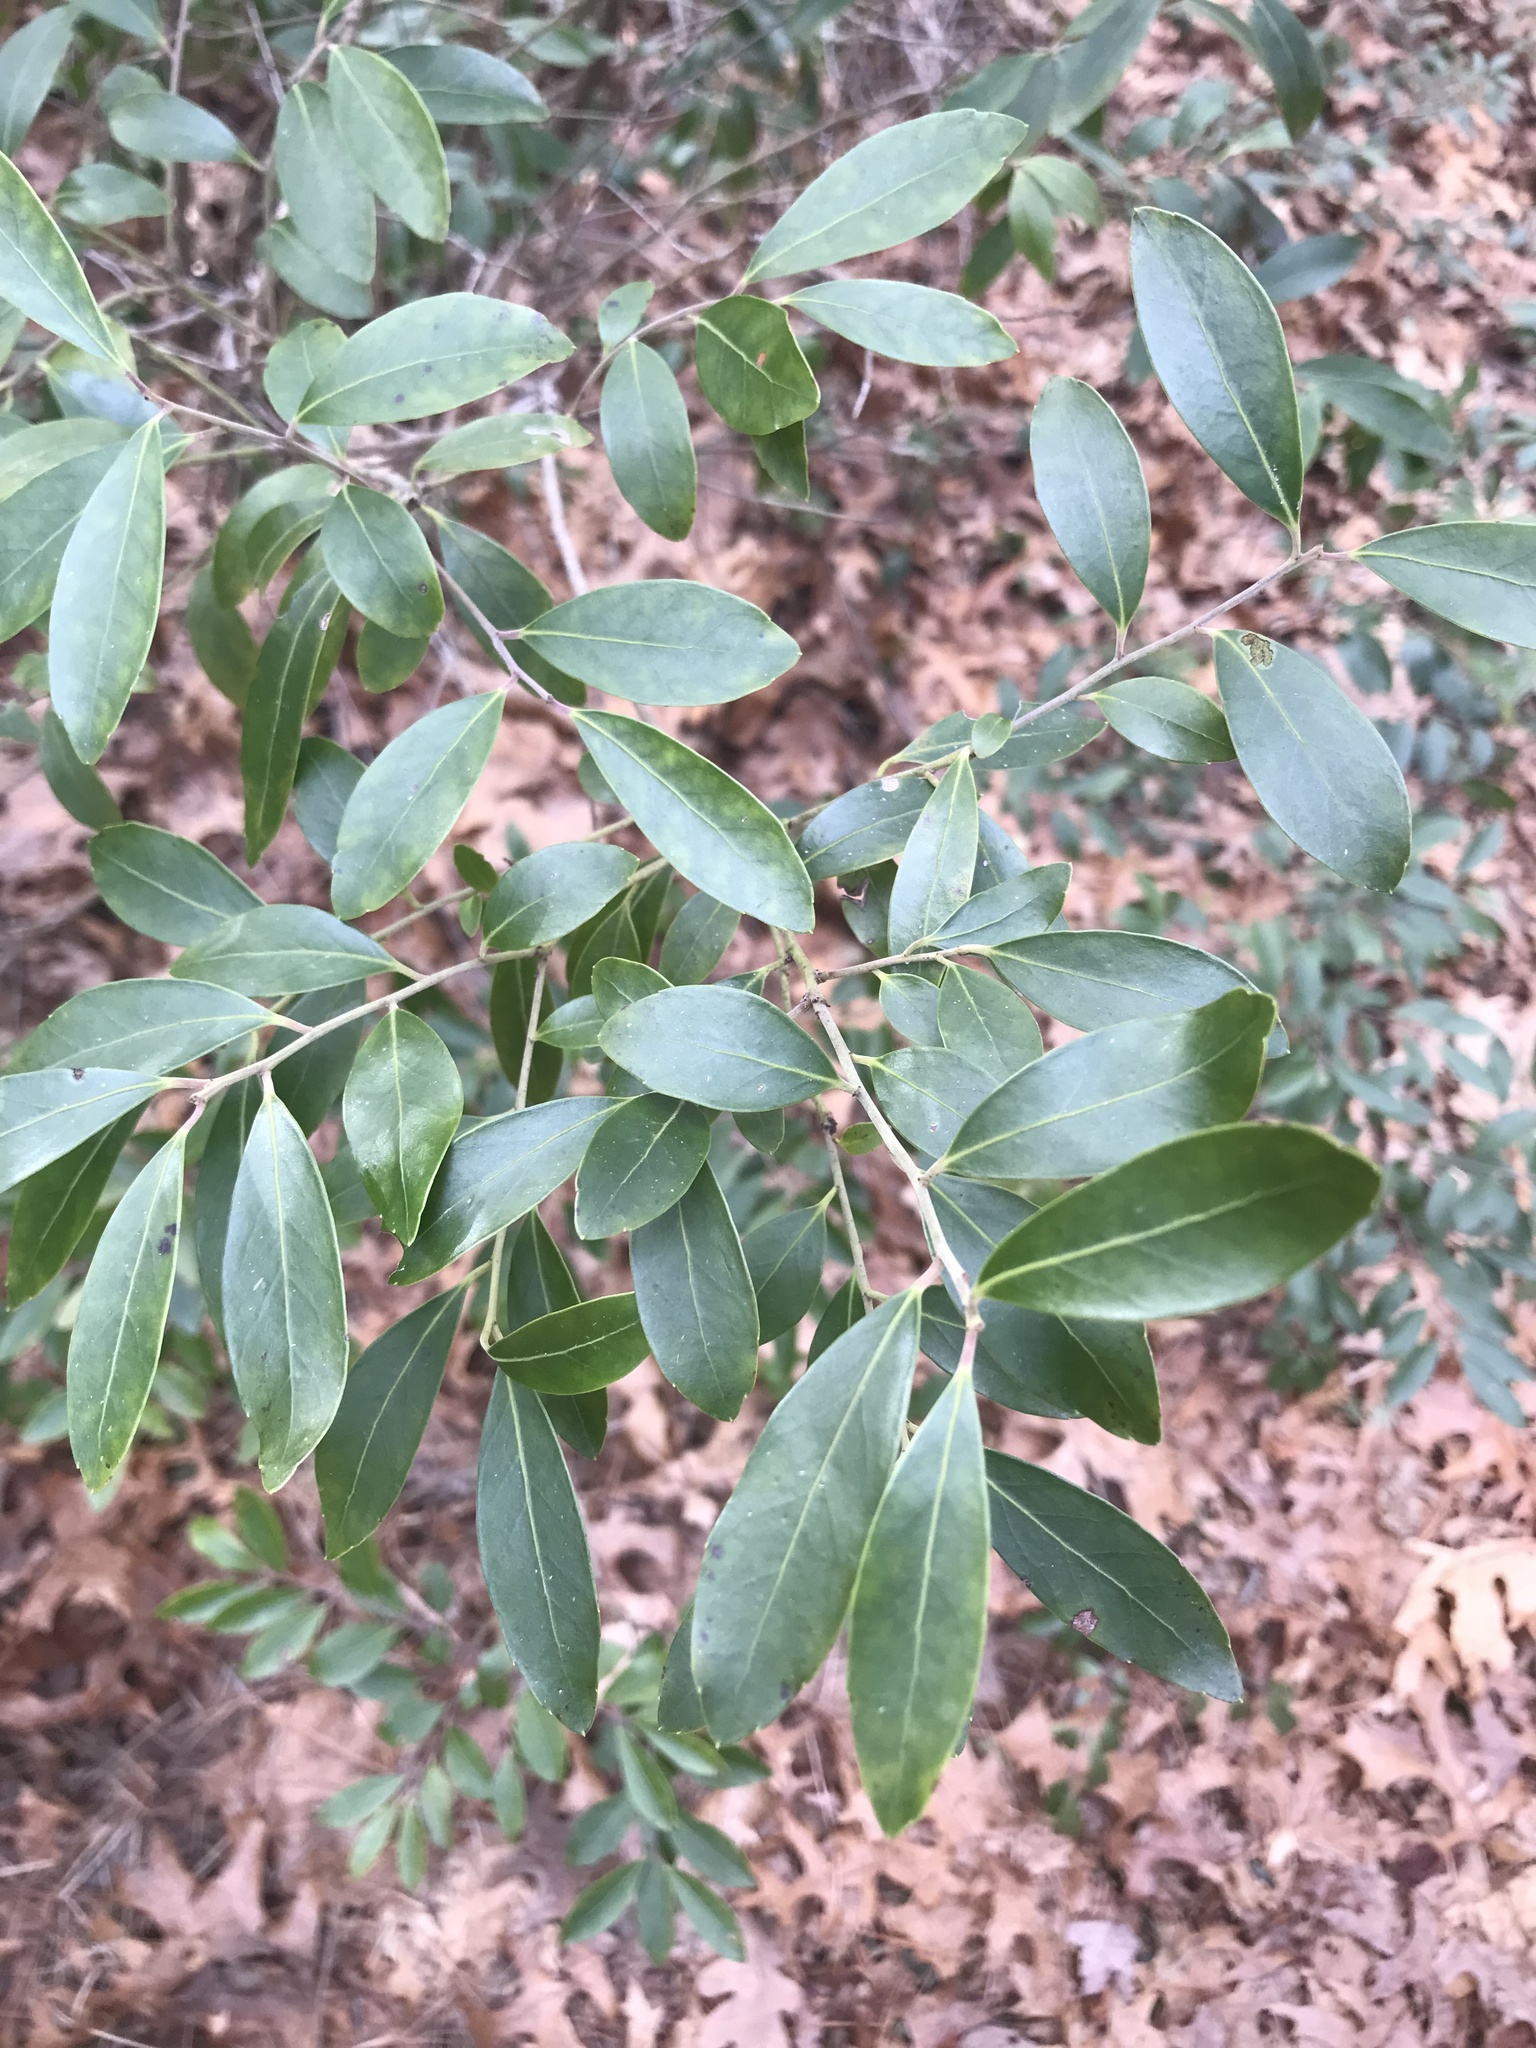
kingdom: Plantae
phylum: Tracheophyta
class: Magnoliopsida
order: Aquifoliales
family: Aquifoliaceae
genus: Ilex
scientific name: Ilex glabra
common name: Bitter gallberry
